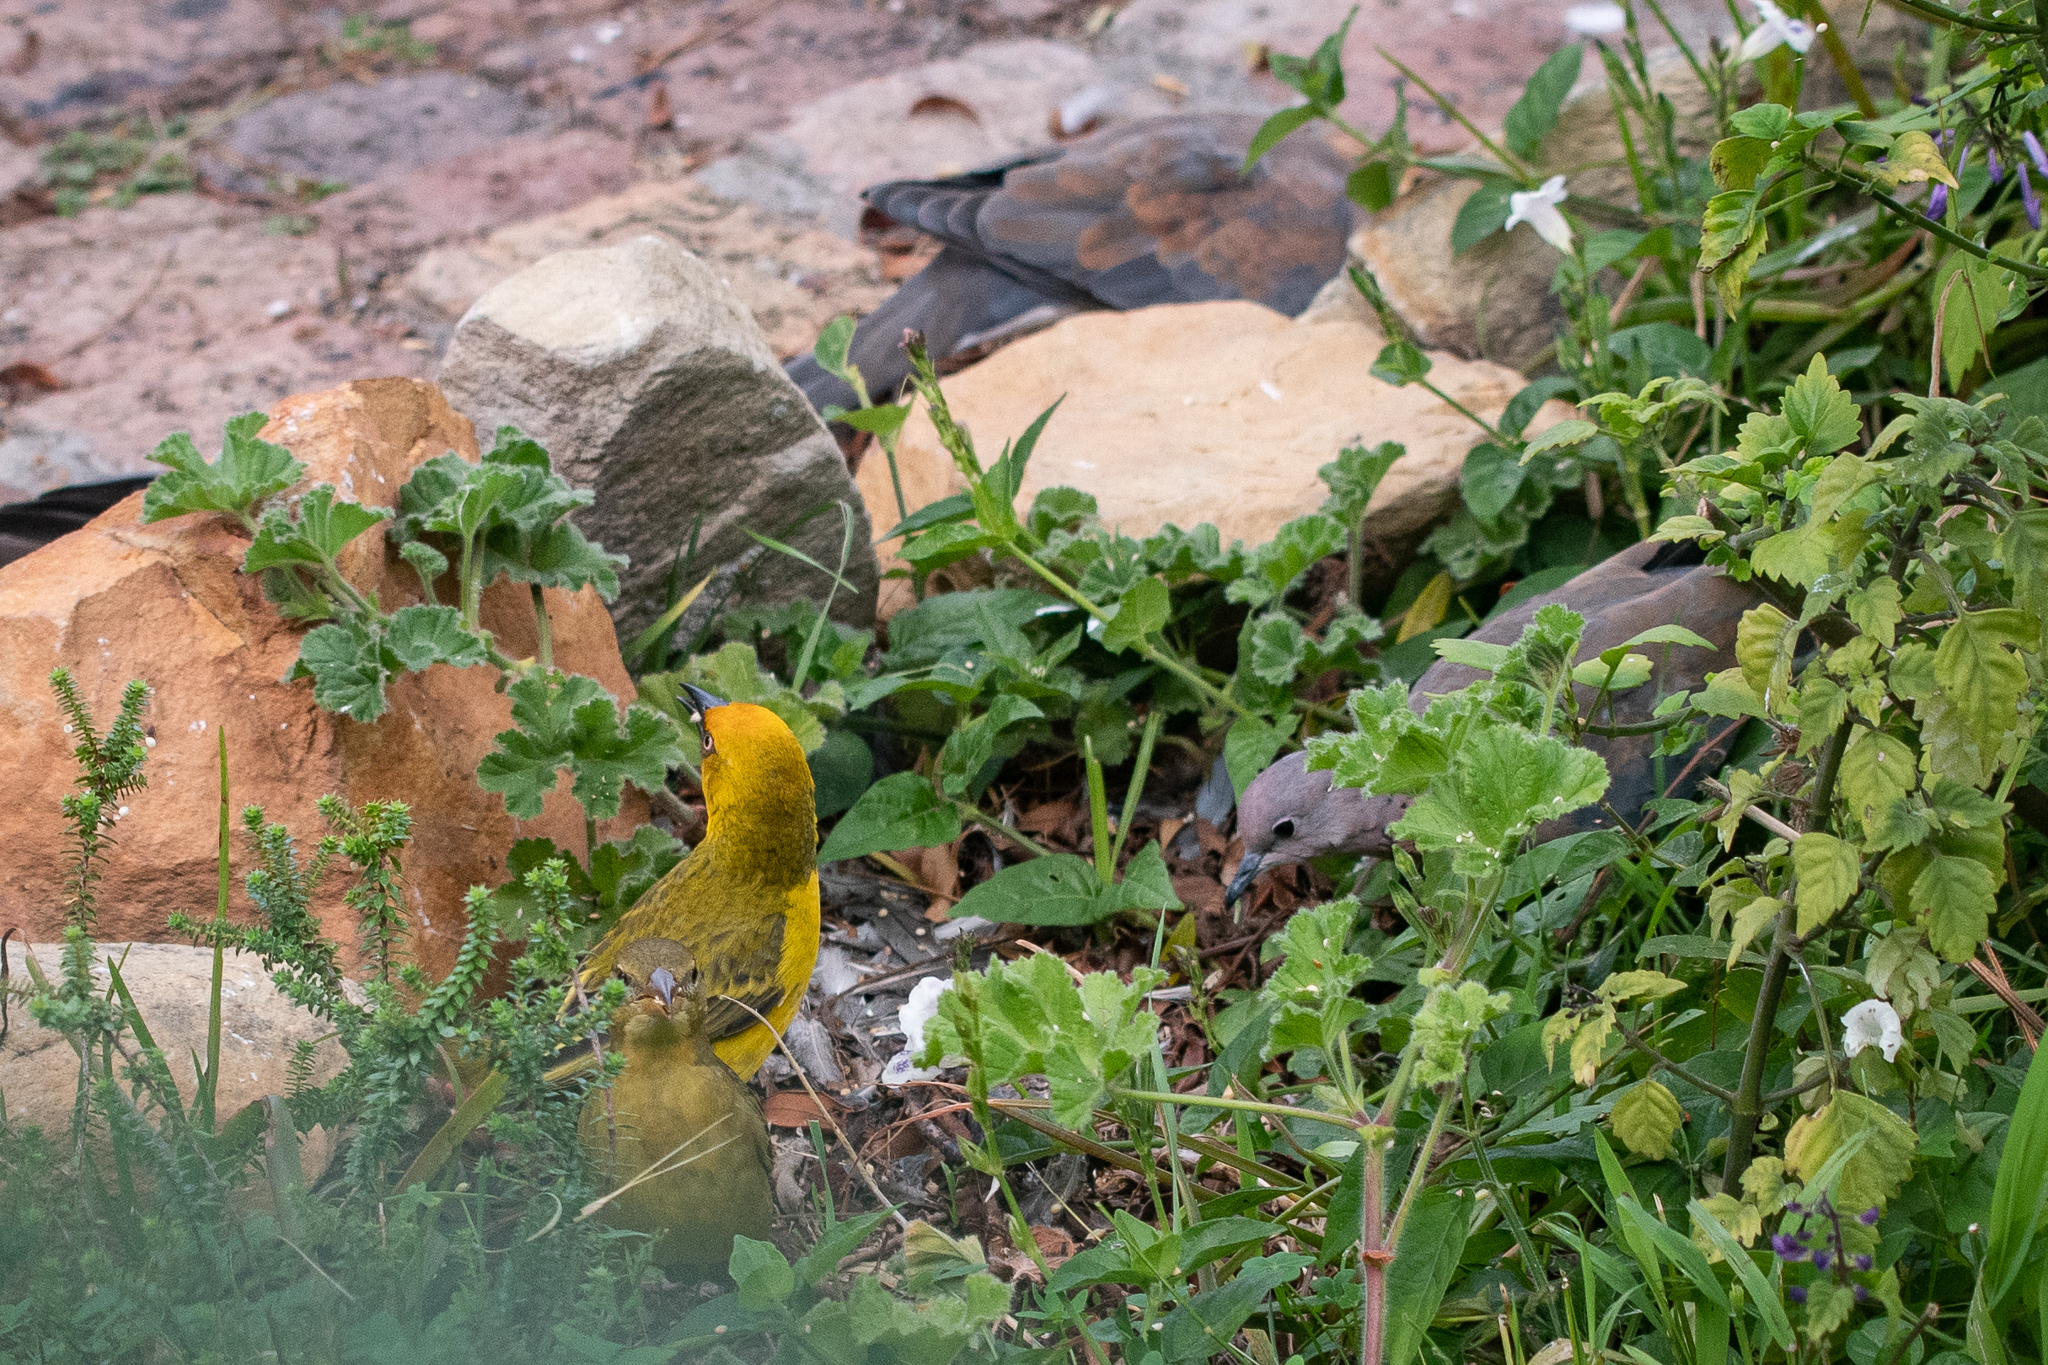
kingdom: Animalia
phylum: Chordata
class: Aves
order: Columbiformes
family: Columbidae
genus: Spilopelia
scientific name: Spilopelia senegalensis
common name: Laughing dove
